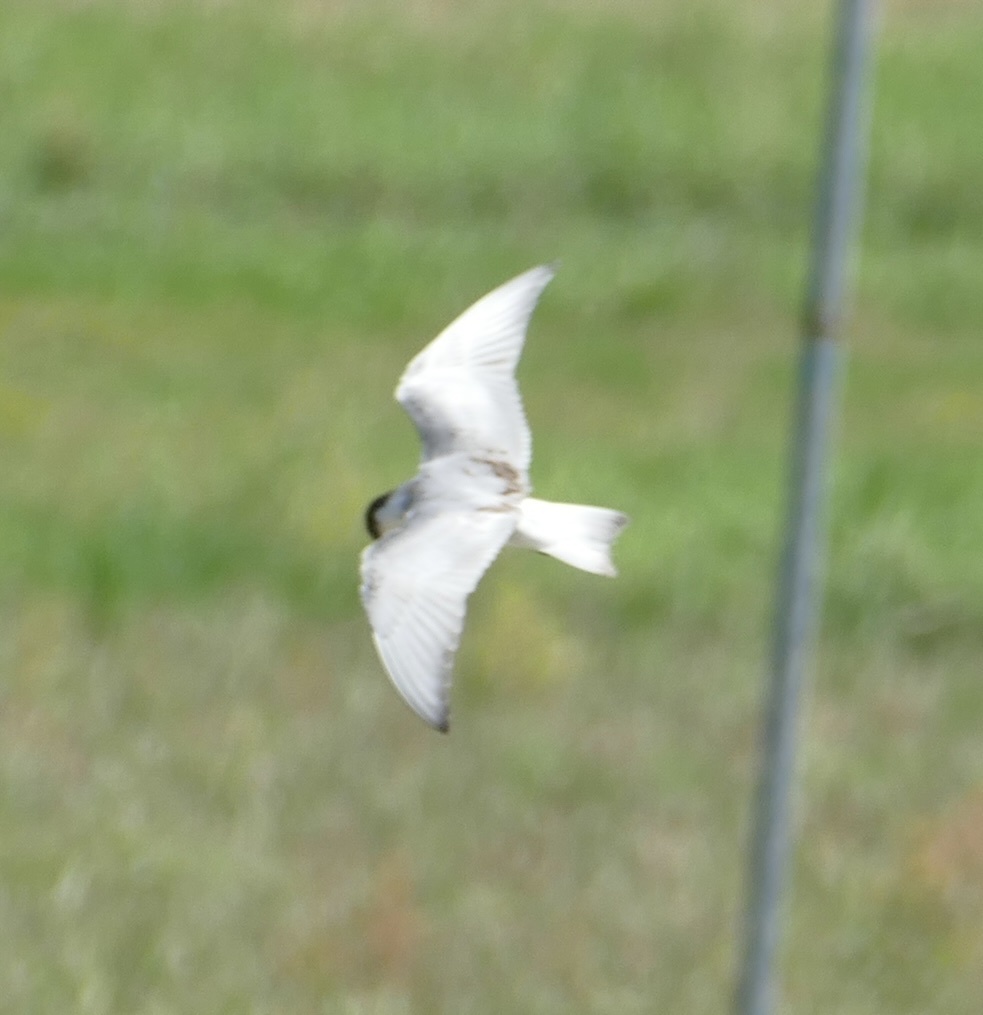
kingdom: Animalia
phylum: Chordata
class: Aves
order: Charadriiformes
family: Laridae
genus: Chlidonias
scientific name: Chlidonias hybrida
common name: Whiskered tern
